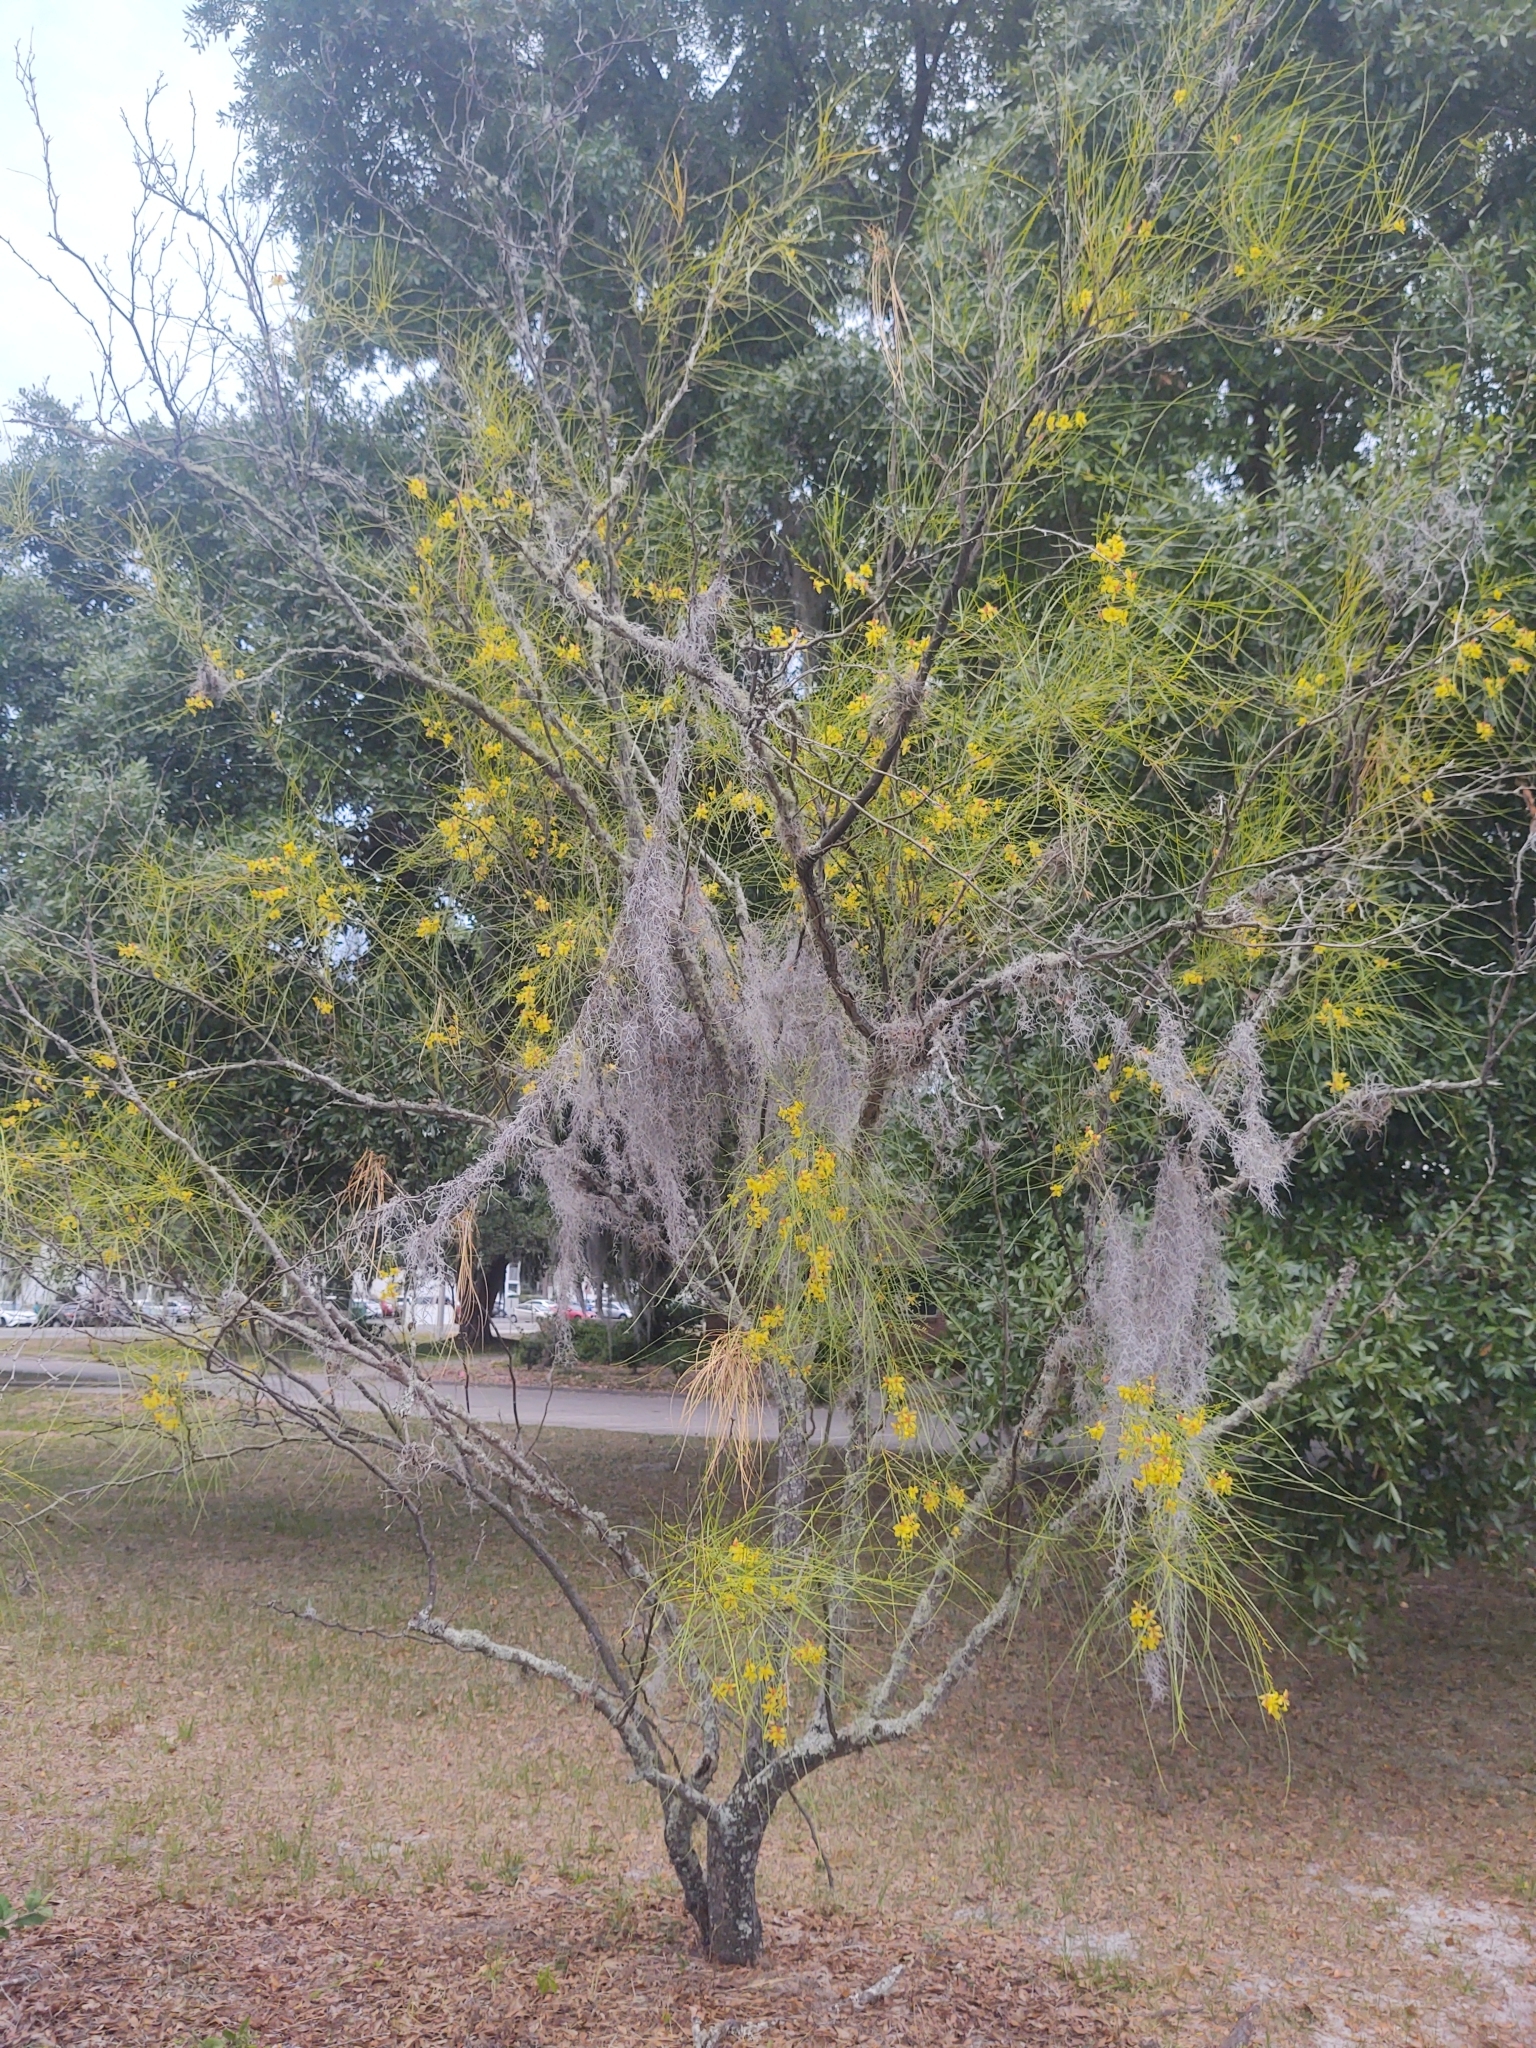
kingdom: Plantae
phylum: Tracheophyta
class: Magnoliopsida
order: Fabales
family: Fabaceae
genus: Parkinsonia
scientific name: Parkinsonia aculeata
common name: Jerusalem thorn
